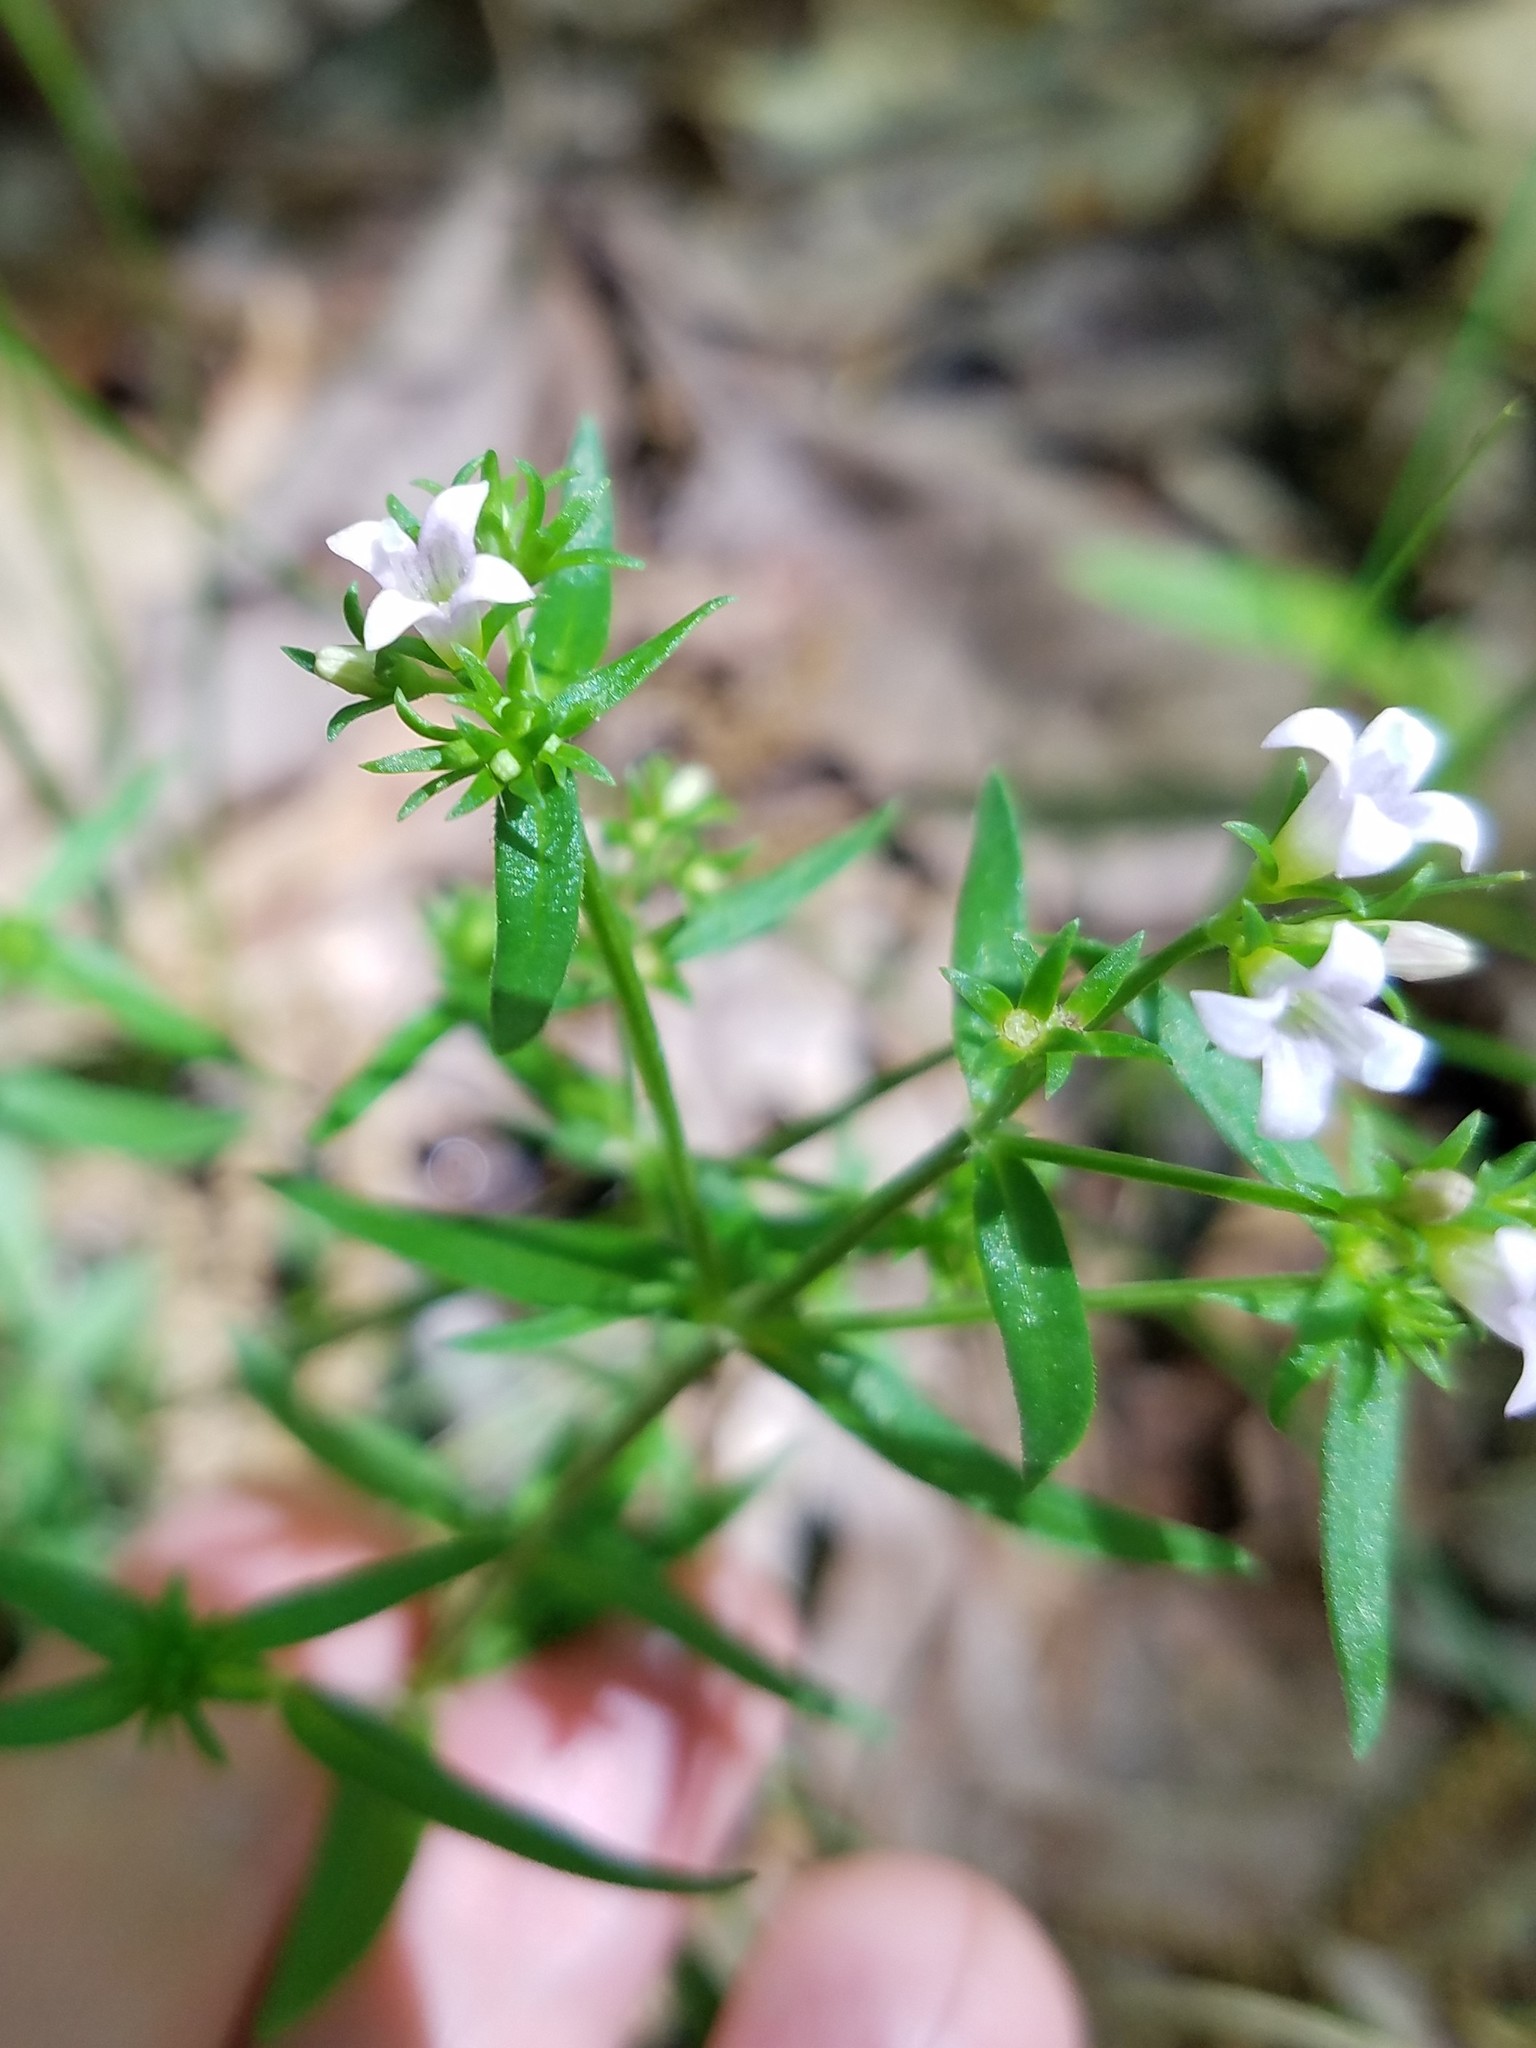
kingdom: Plantae
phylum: Tracheophyta
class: Magnoliopsida
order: Gentianales
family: Rubiaceae
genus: Houstonia
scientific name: Houstonia longifolia
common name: Long-leaved bluets
